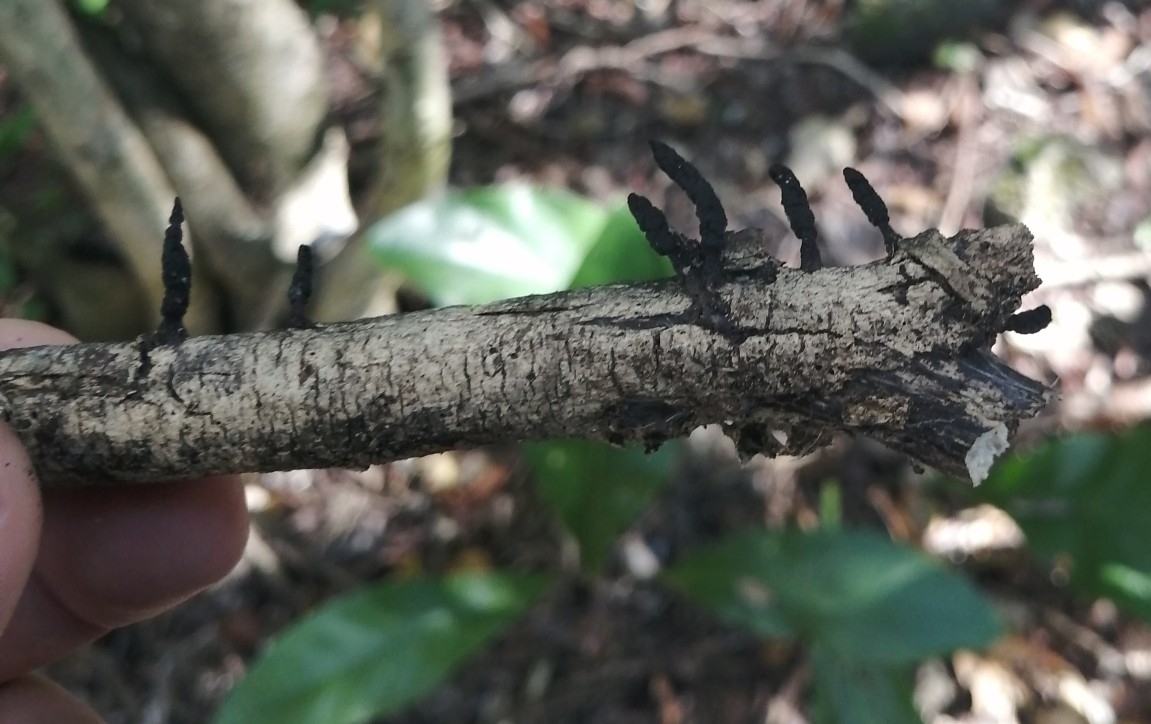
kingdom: Fungi
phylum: Ascomycota
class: Sordariomycetes
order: Xylariales
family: Xylariaceae
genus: Xylaria
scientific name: Xylaria hypoxylon
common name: Candle-snuff fungus
